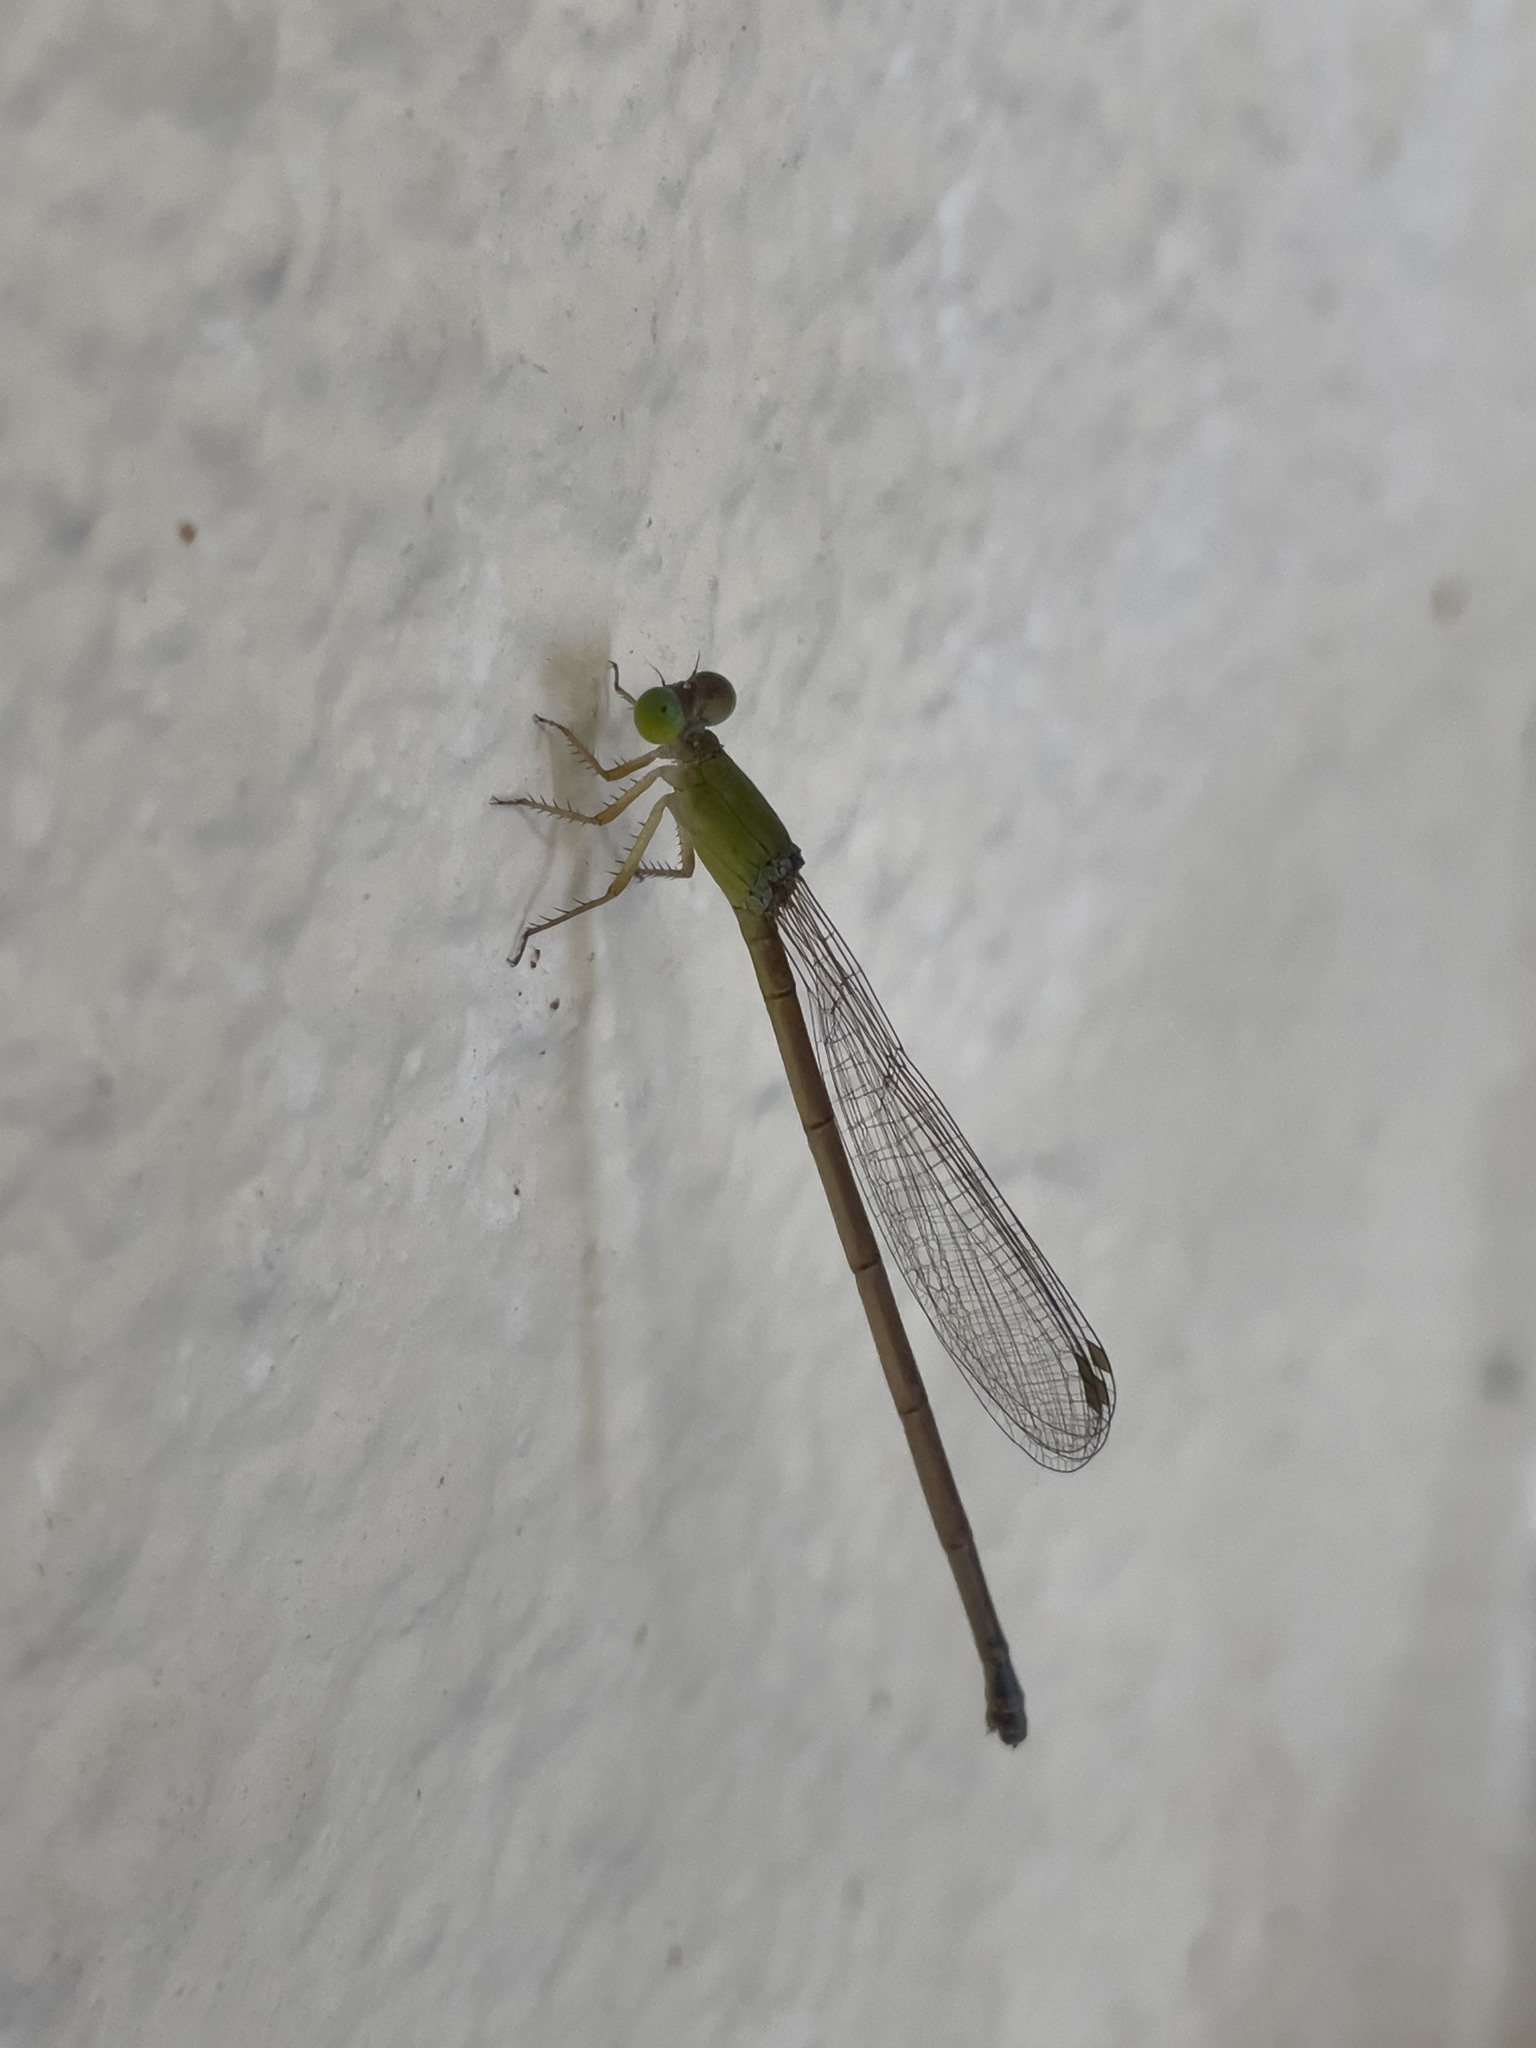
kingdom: Animalia
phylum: Arthropoda
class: Insecta
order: Odonata
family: Coenagrionidae
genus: Ceriagrion
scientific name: Ceriagrion auranticum
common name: Orange-tailed sprite
